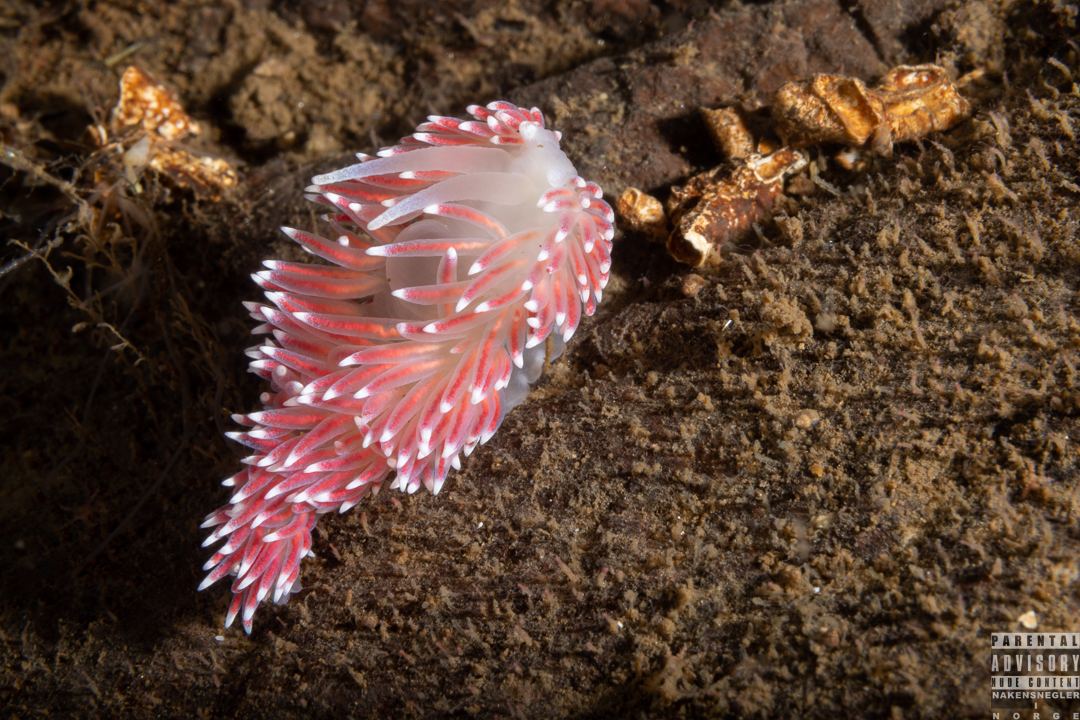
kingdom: Animalia
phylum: Mollusca
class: Gastropoda
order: Nudibranchia
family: Flabellinidae
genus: Carronella
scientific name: Carronella pellucida
